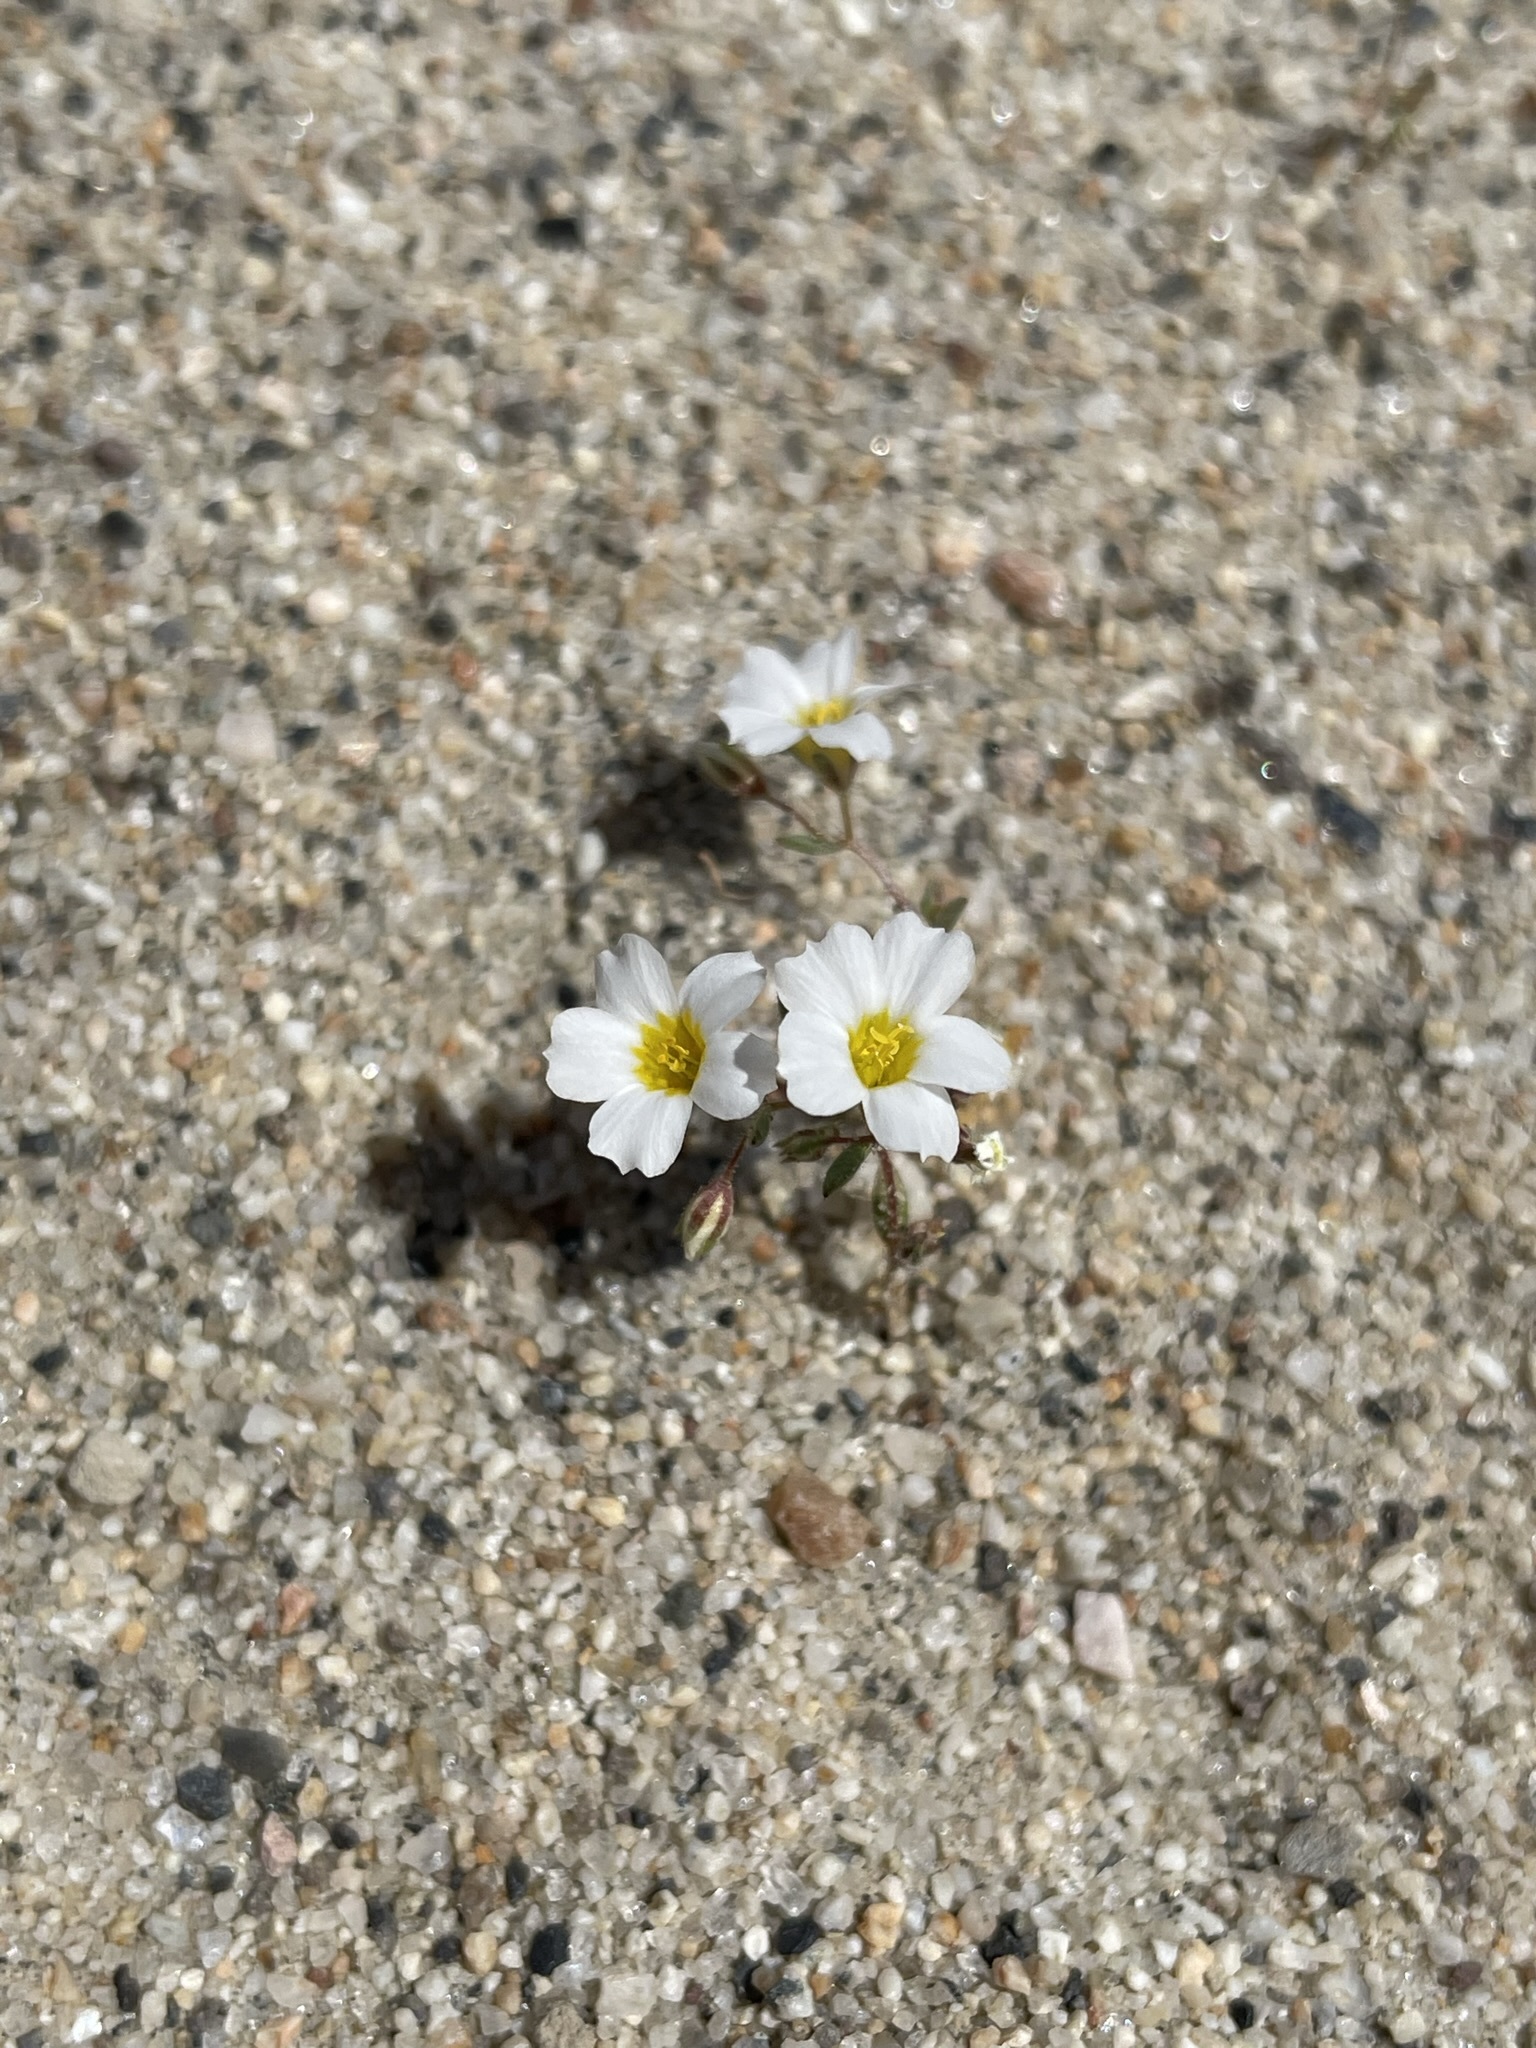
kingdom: Plantae
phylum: Tracheophyta
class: Magnoliopsida
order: Ericales
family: Polemoniaceae
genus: Linanthus
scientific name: Linanthus inyoensis
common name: Inyo gilia
